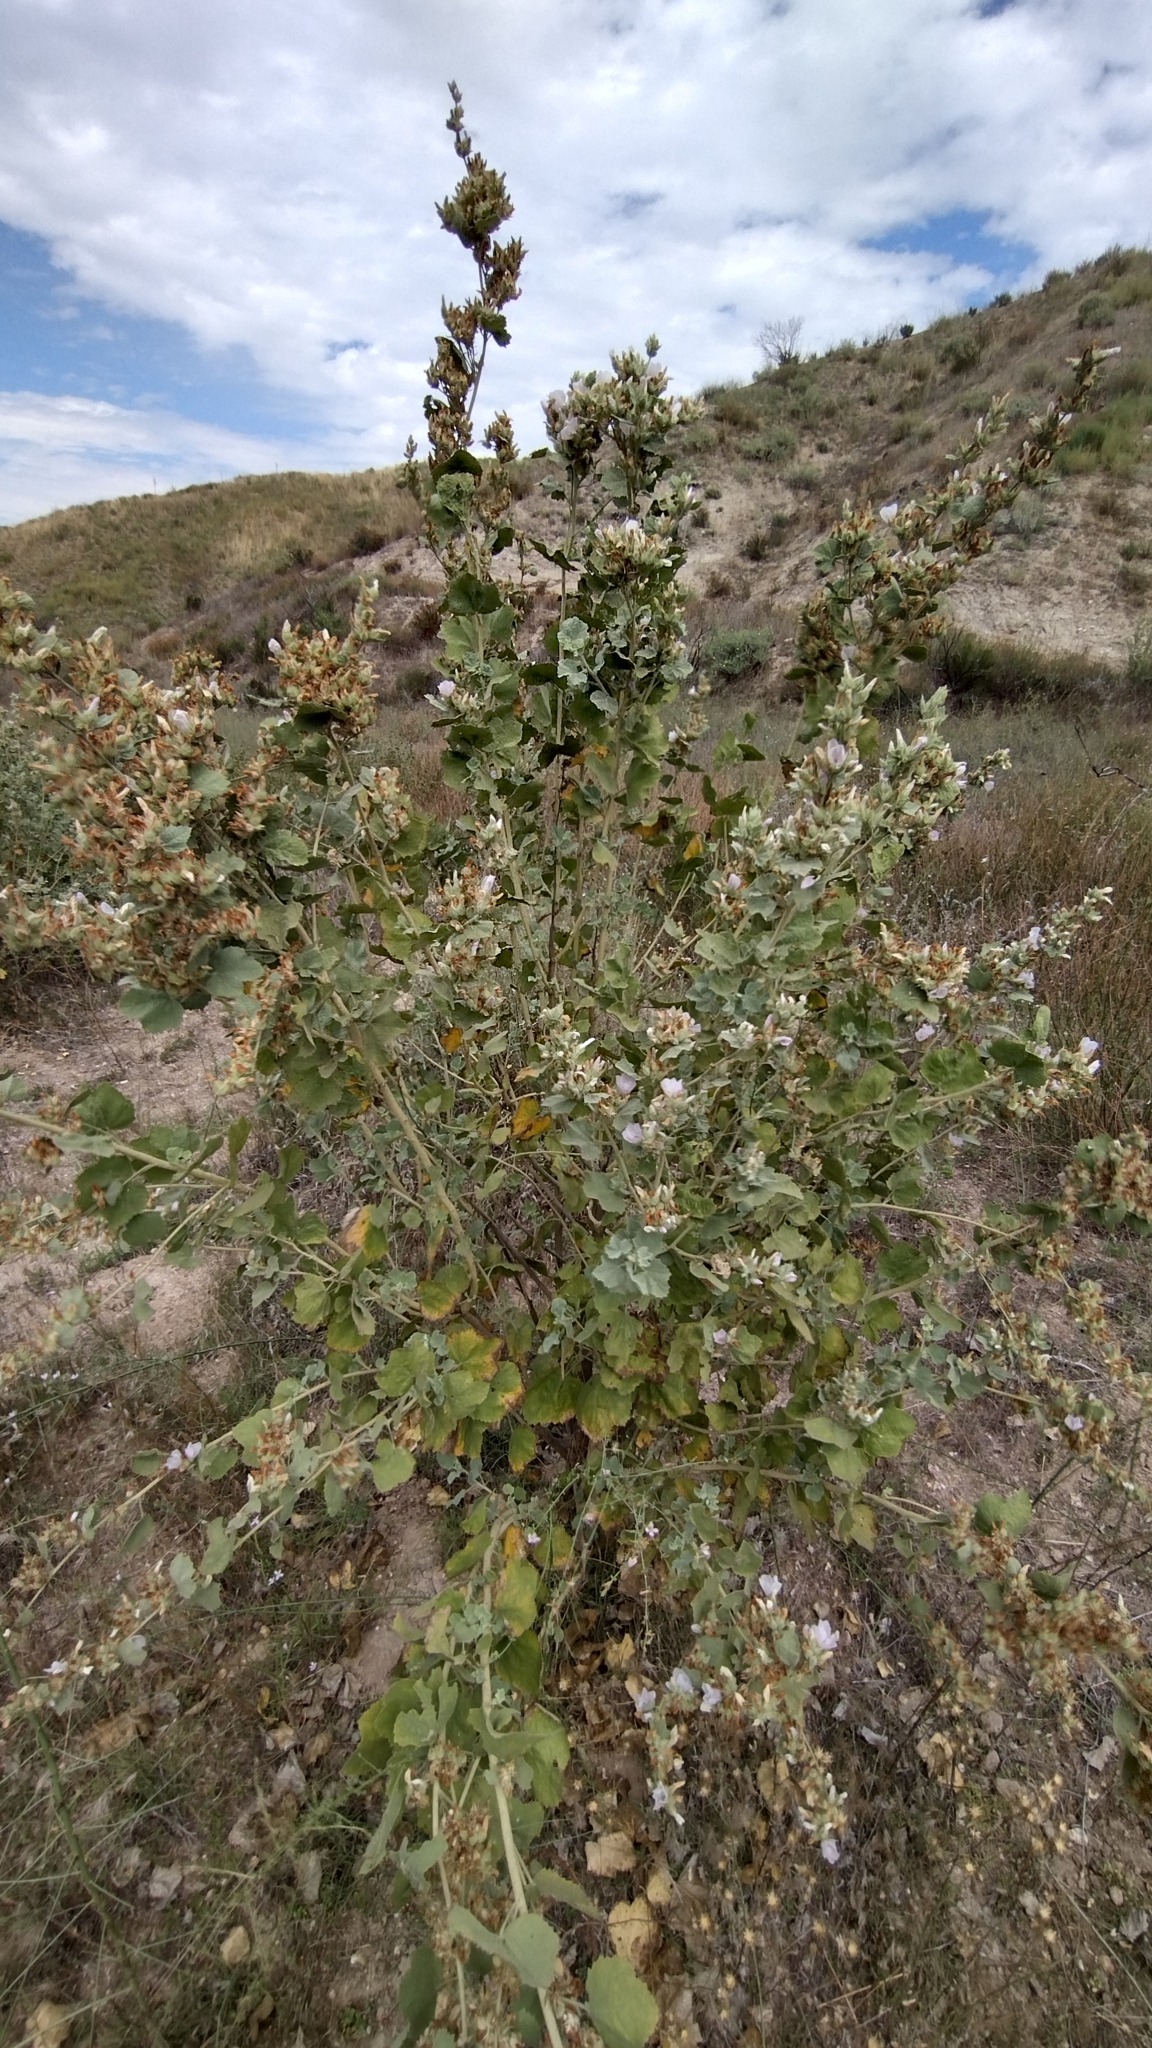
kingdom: Plantae
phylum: Tracheophyta
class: Magnoliopsida
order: Malvales
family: Malvaceae
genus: Malacothamnus
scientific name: Malacothamnus marrubioides
